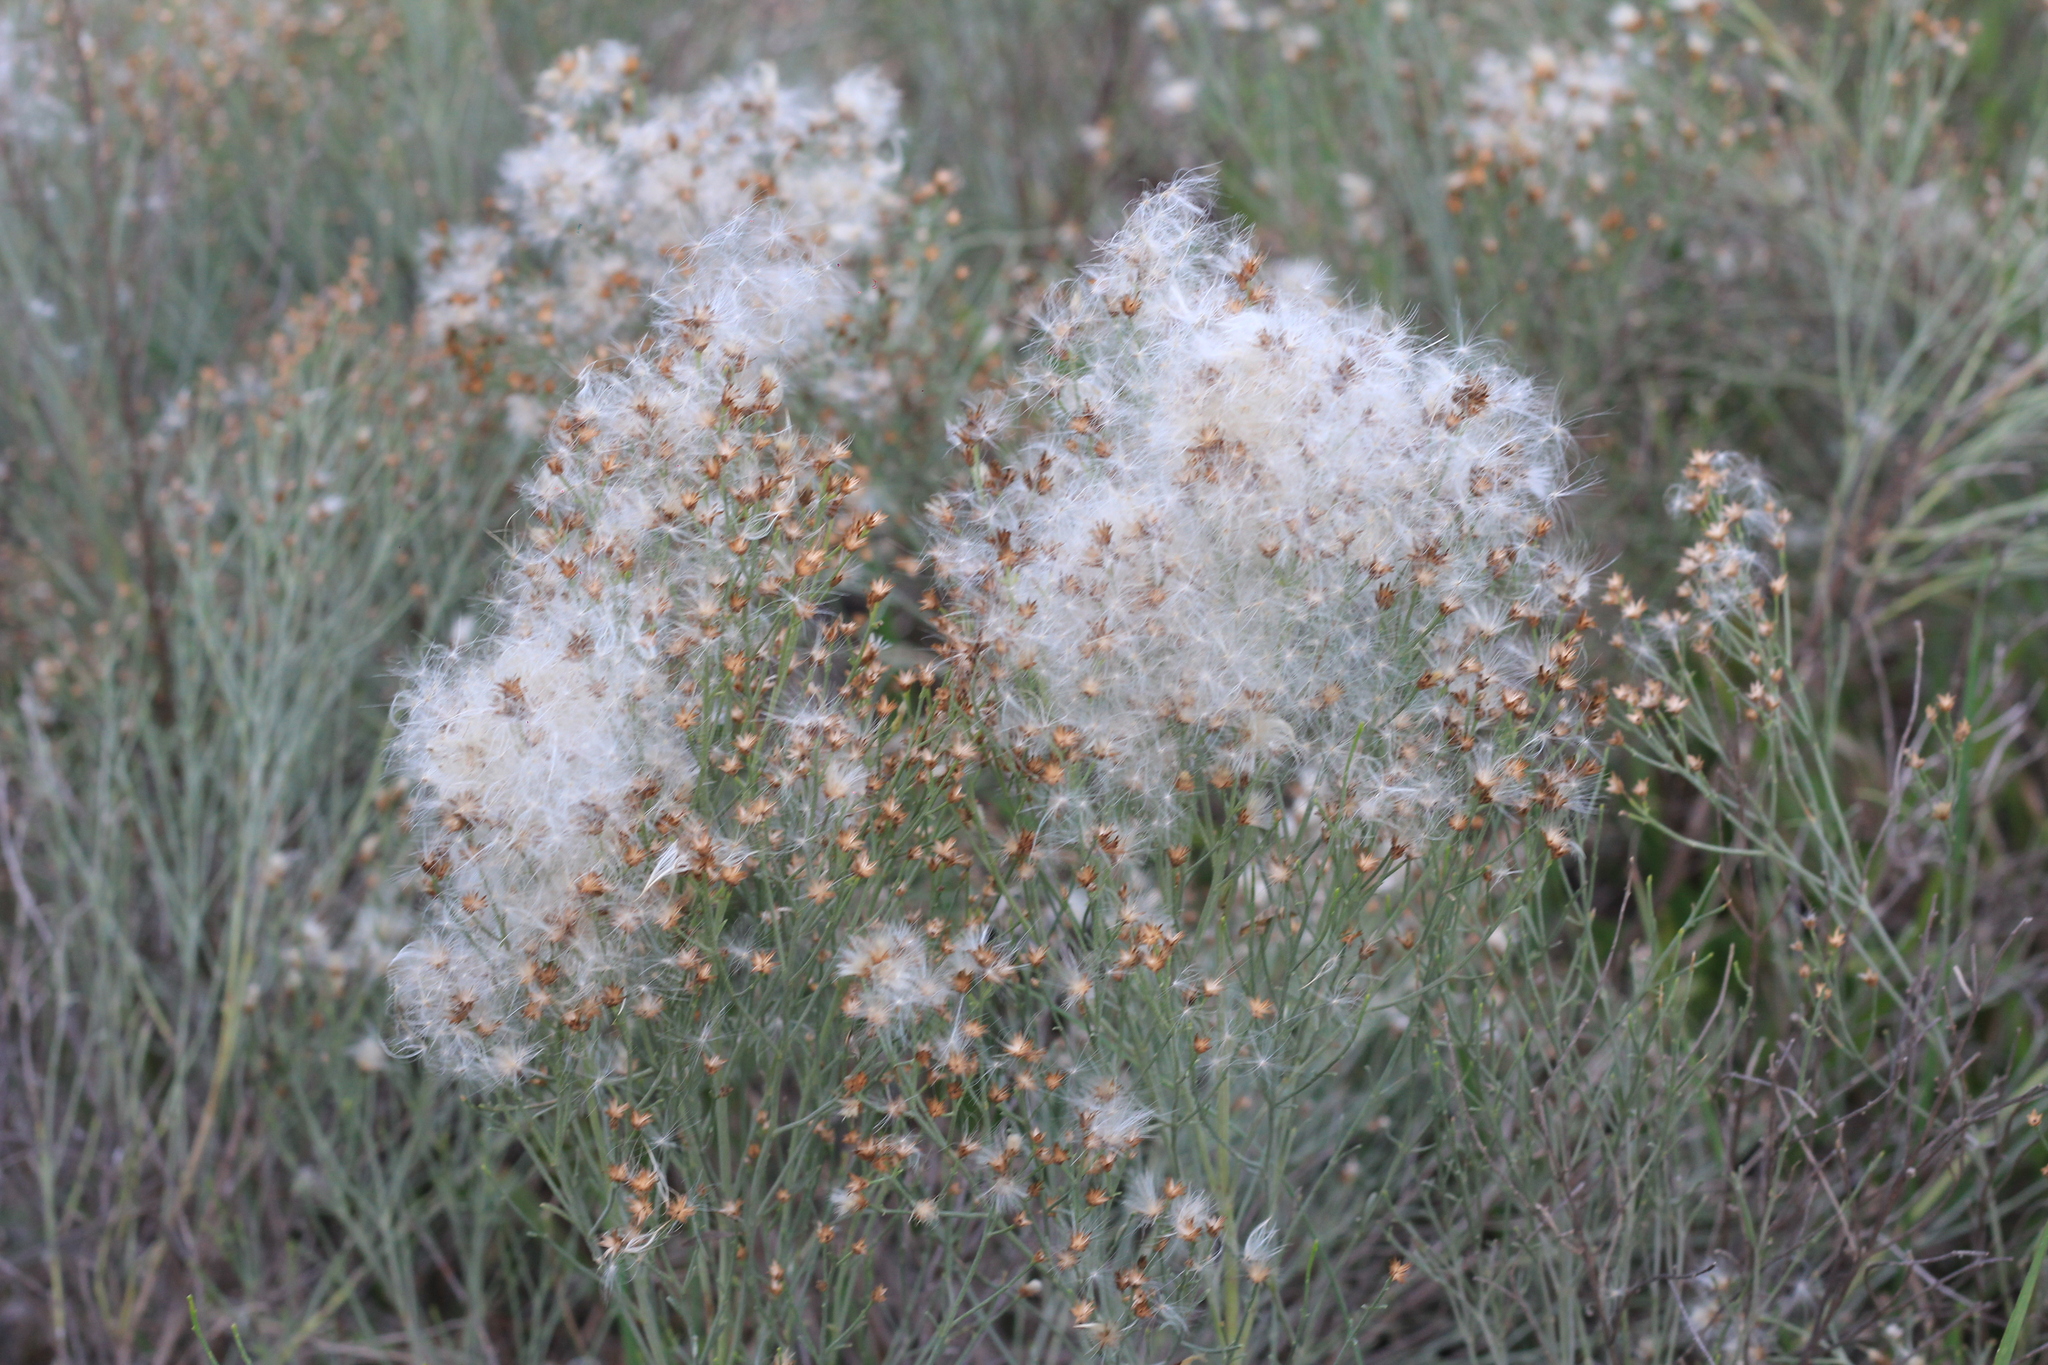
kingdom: Plantae
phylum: Tracheophyta
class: Magnoliopsida
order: Asterales
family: Asteraceae
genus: Baccharis
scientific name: Baccharis notosergila
